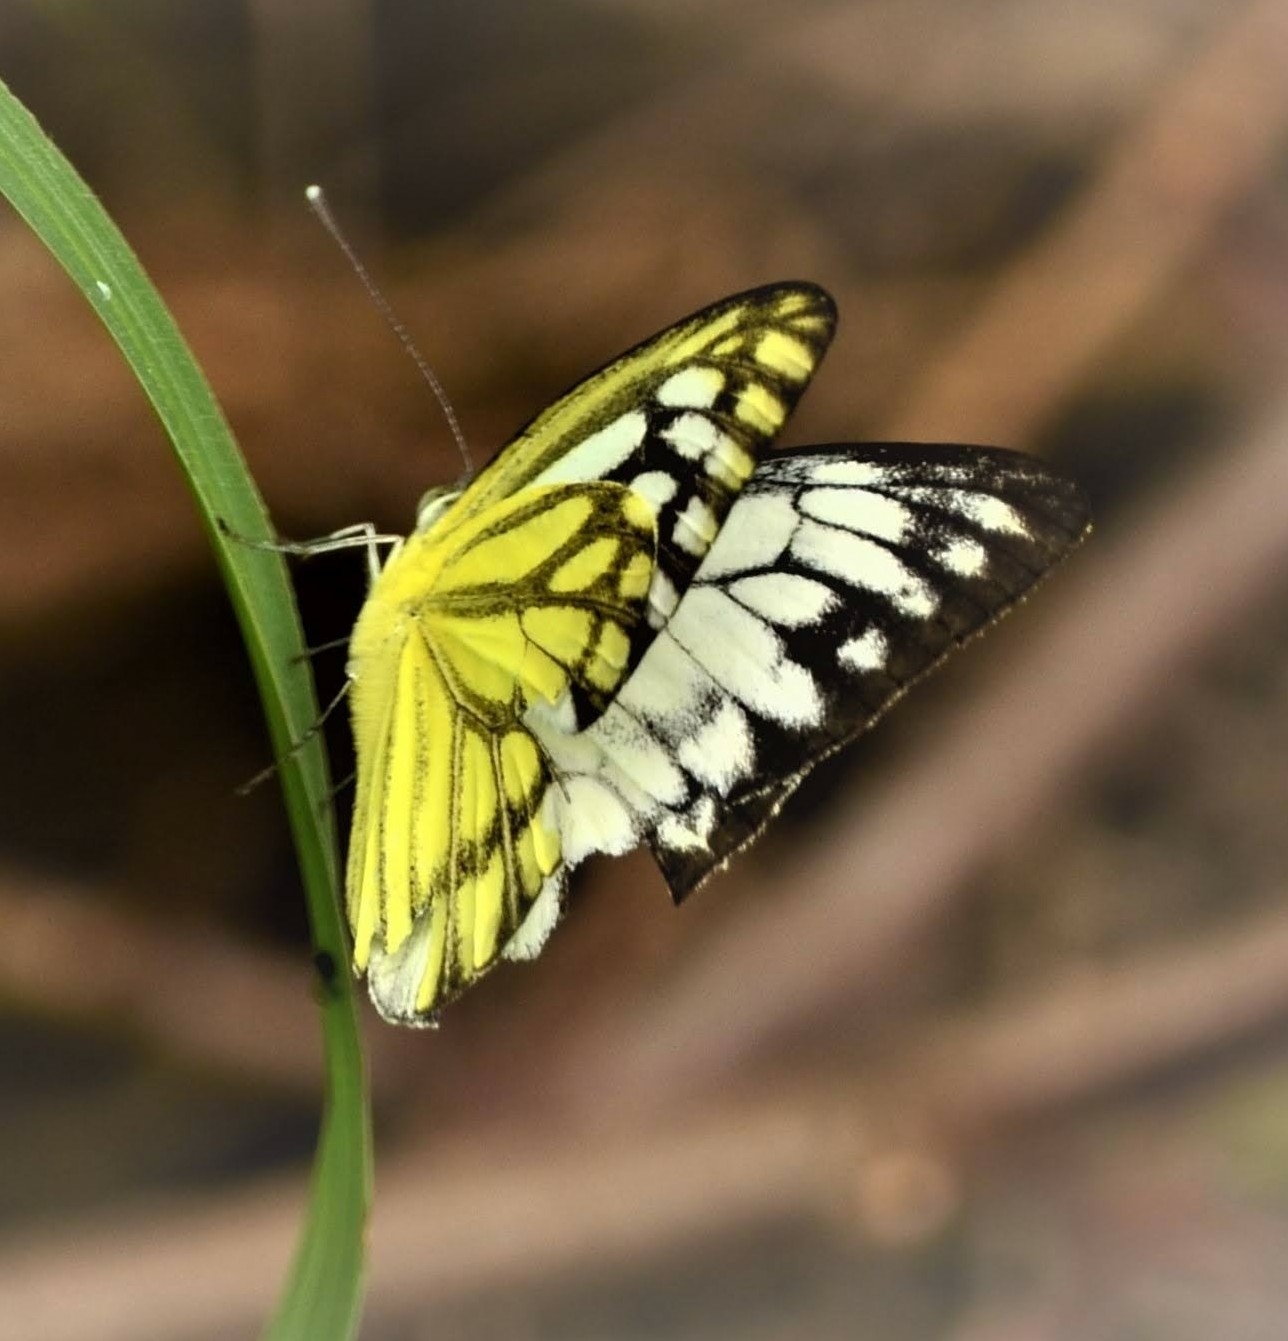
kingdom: Animalia
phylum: Arthropoda
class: Insecta
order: Lepidoptera
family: Pieridae
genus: Cepora
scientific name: Cepora nerissa
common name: Common gull
